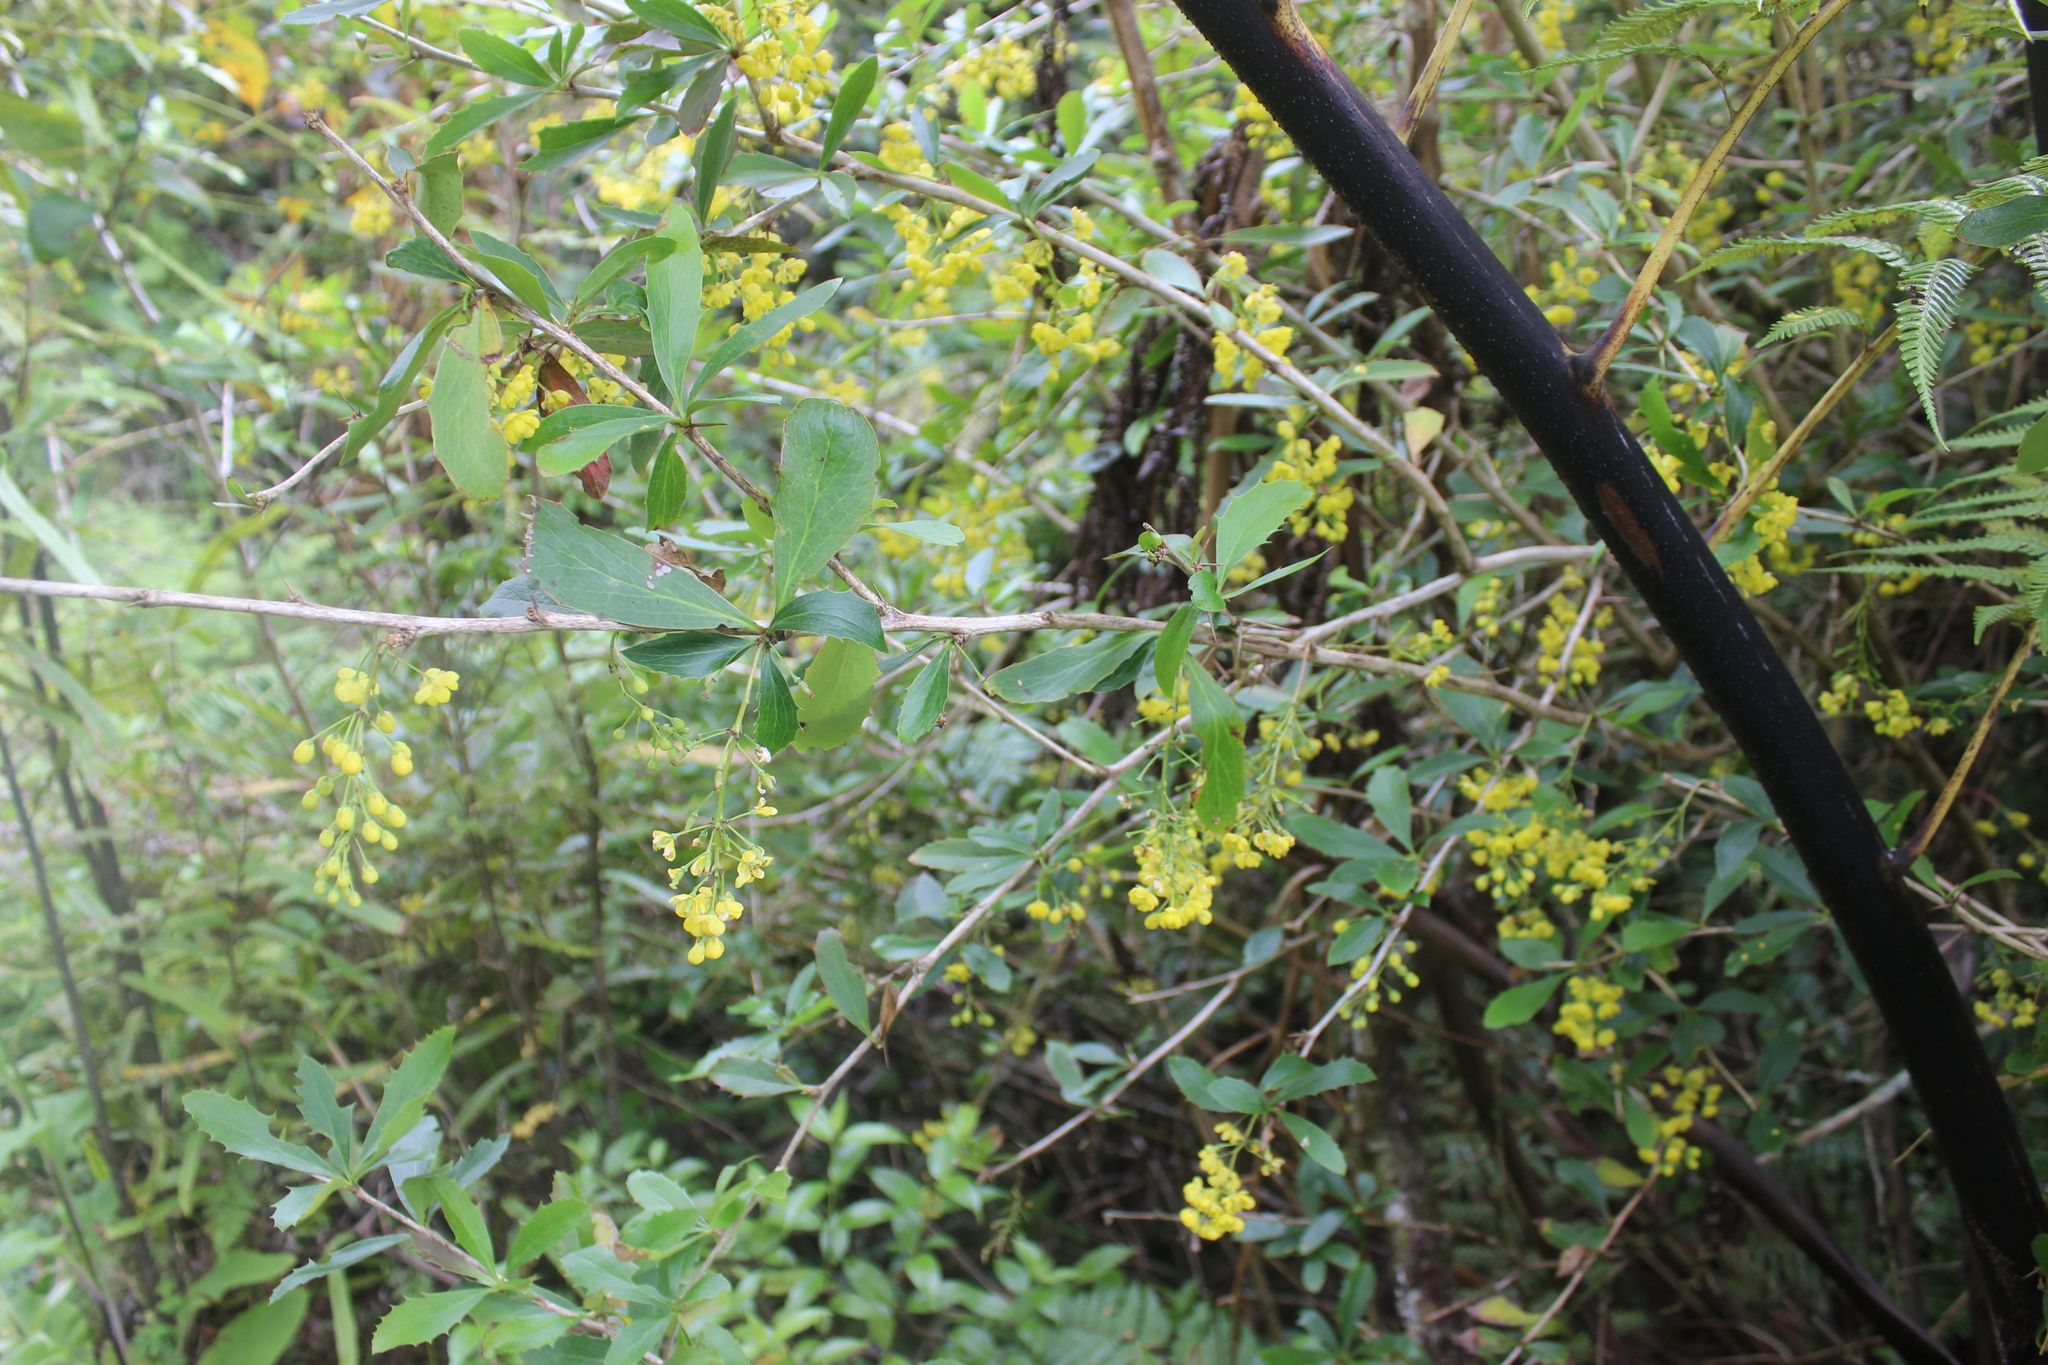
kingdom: Plantae
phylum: Tracheophyta
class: Magnoliopsida
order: Ranunculales
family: Berberidaceae
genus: Berberis
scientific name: Berberis glaucocarpa
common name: Great barberry
